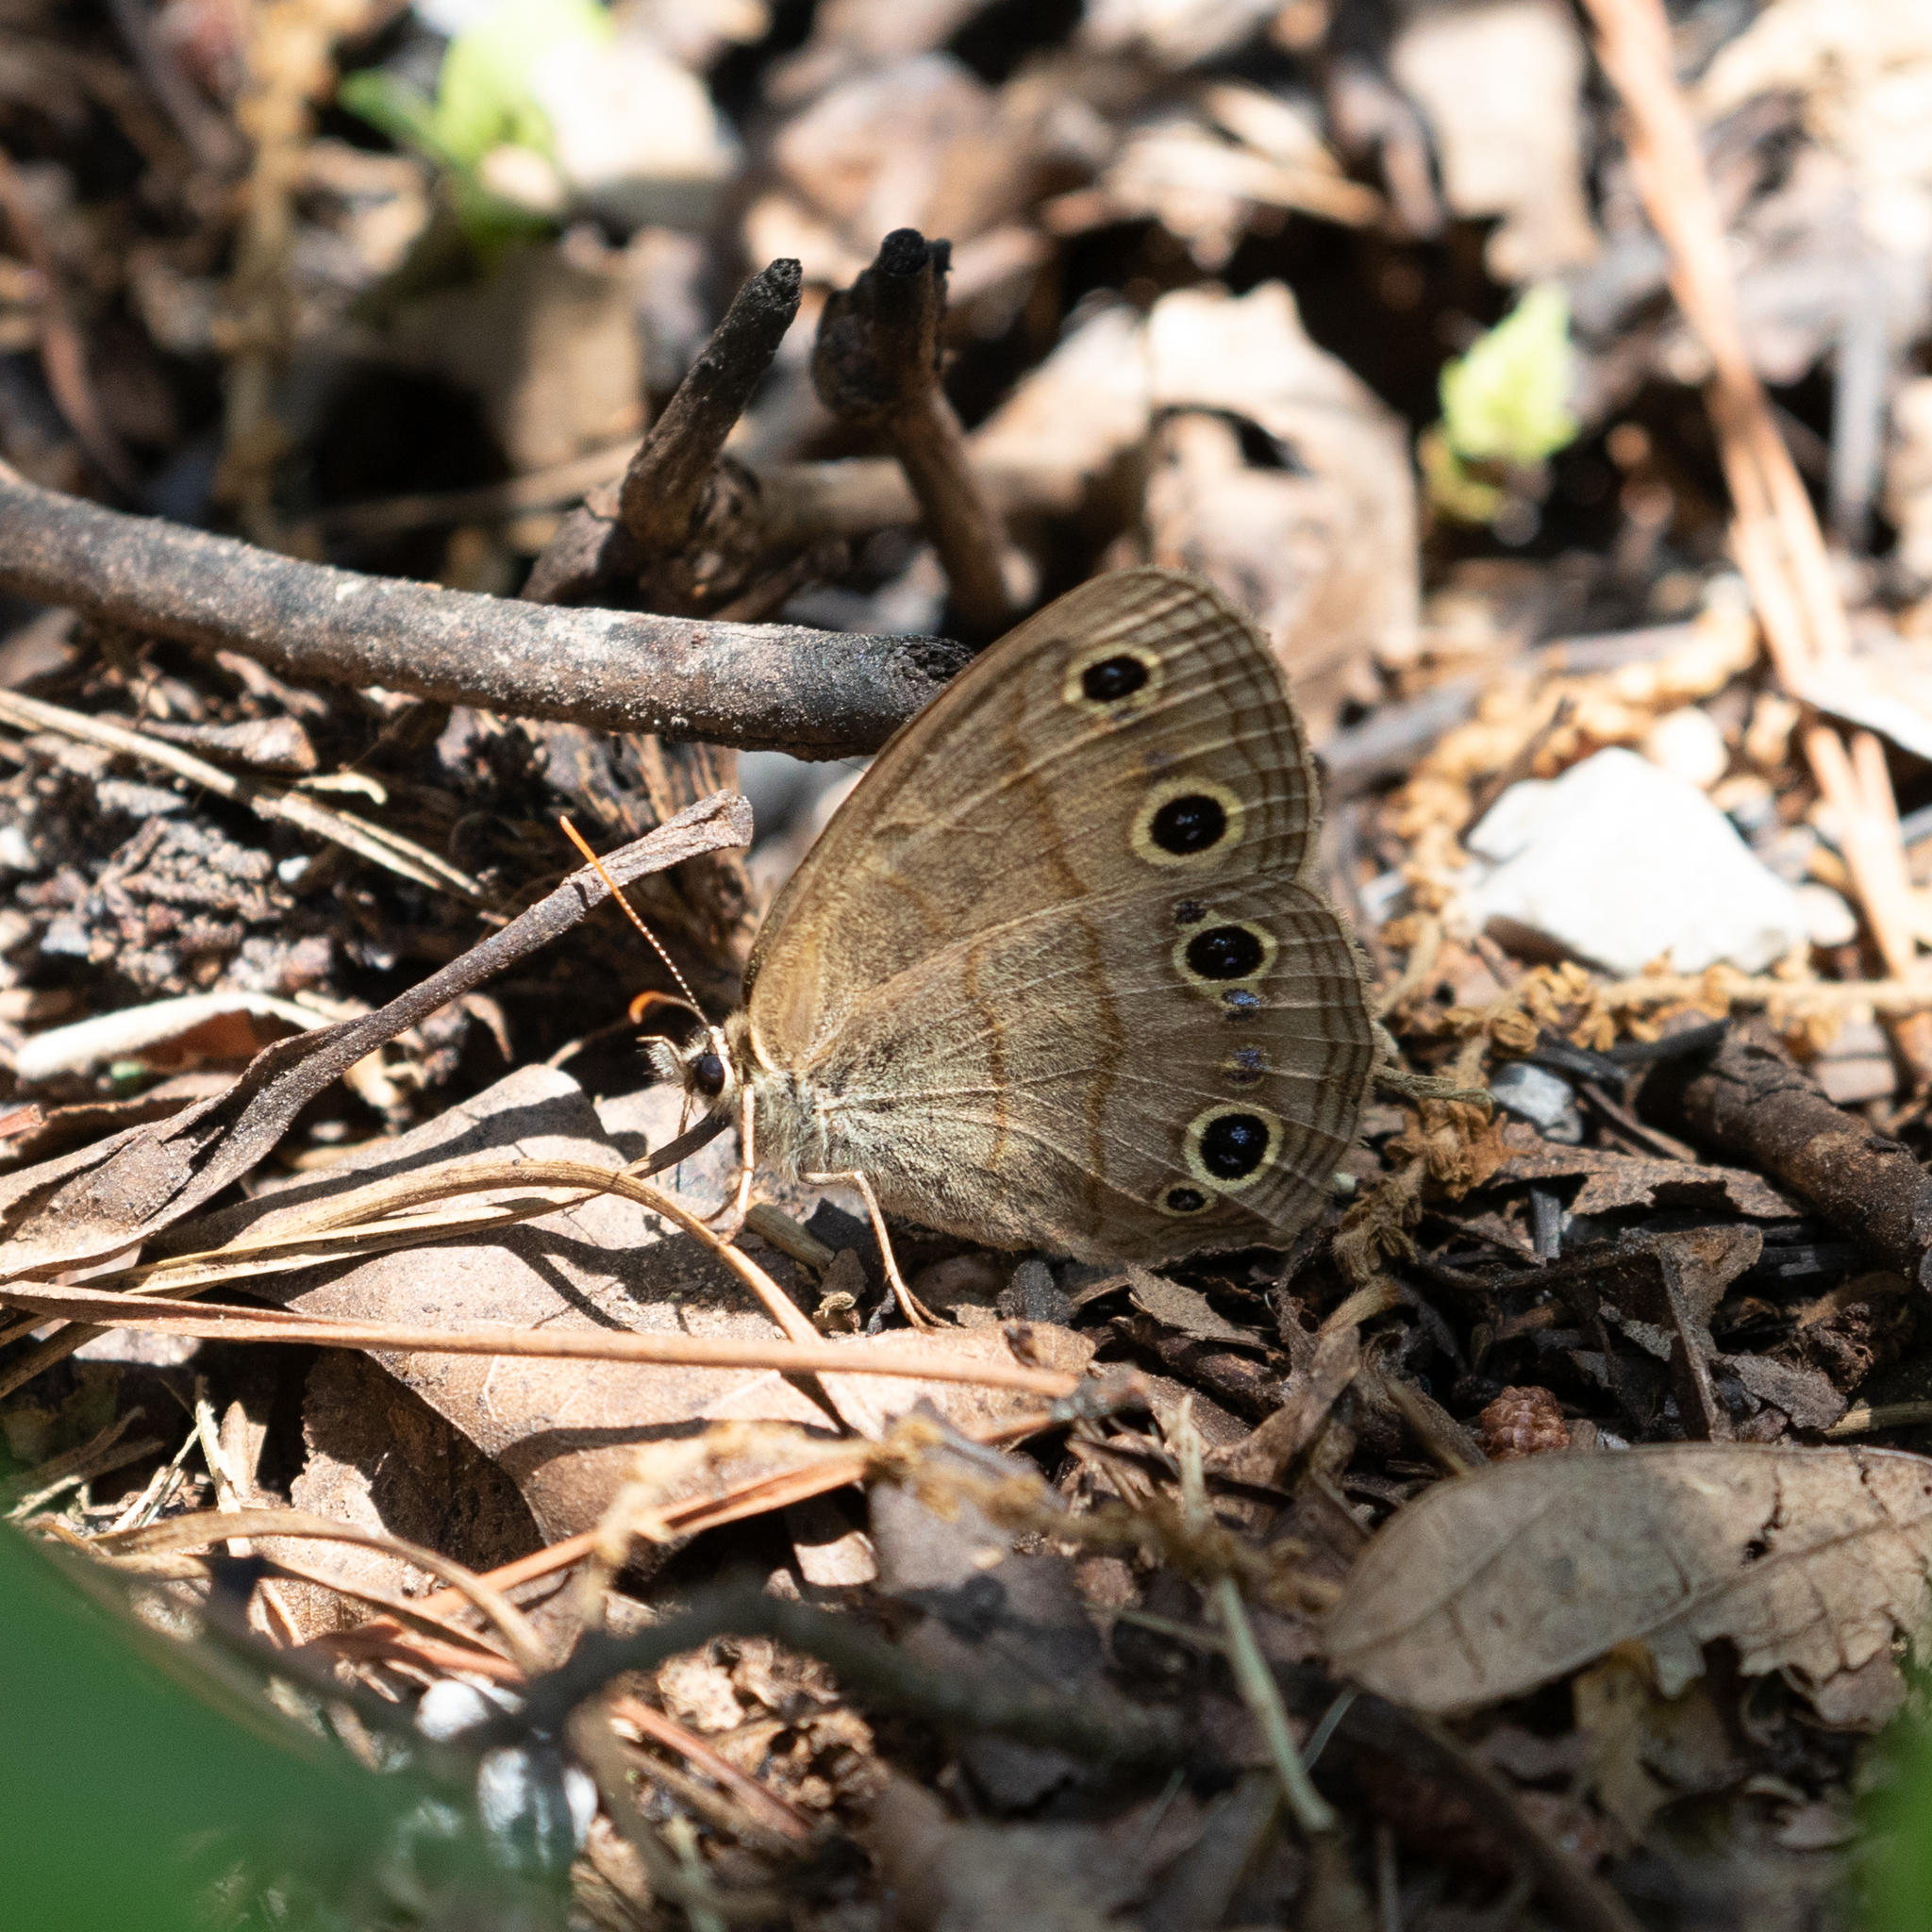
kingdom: Animalia
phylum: Arthropoda
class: Insecta
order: Lepidoptera
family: Nymphalidae
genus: Euptychia
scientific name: Euptychia cymela
